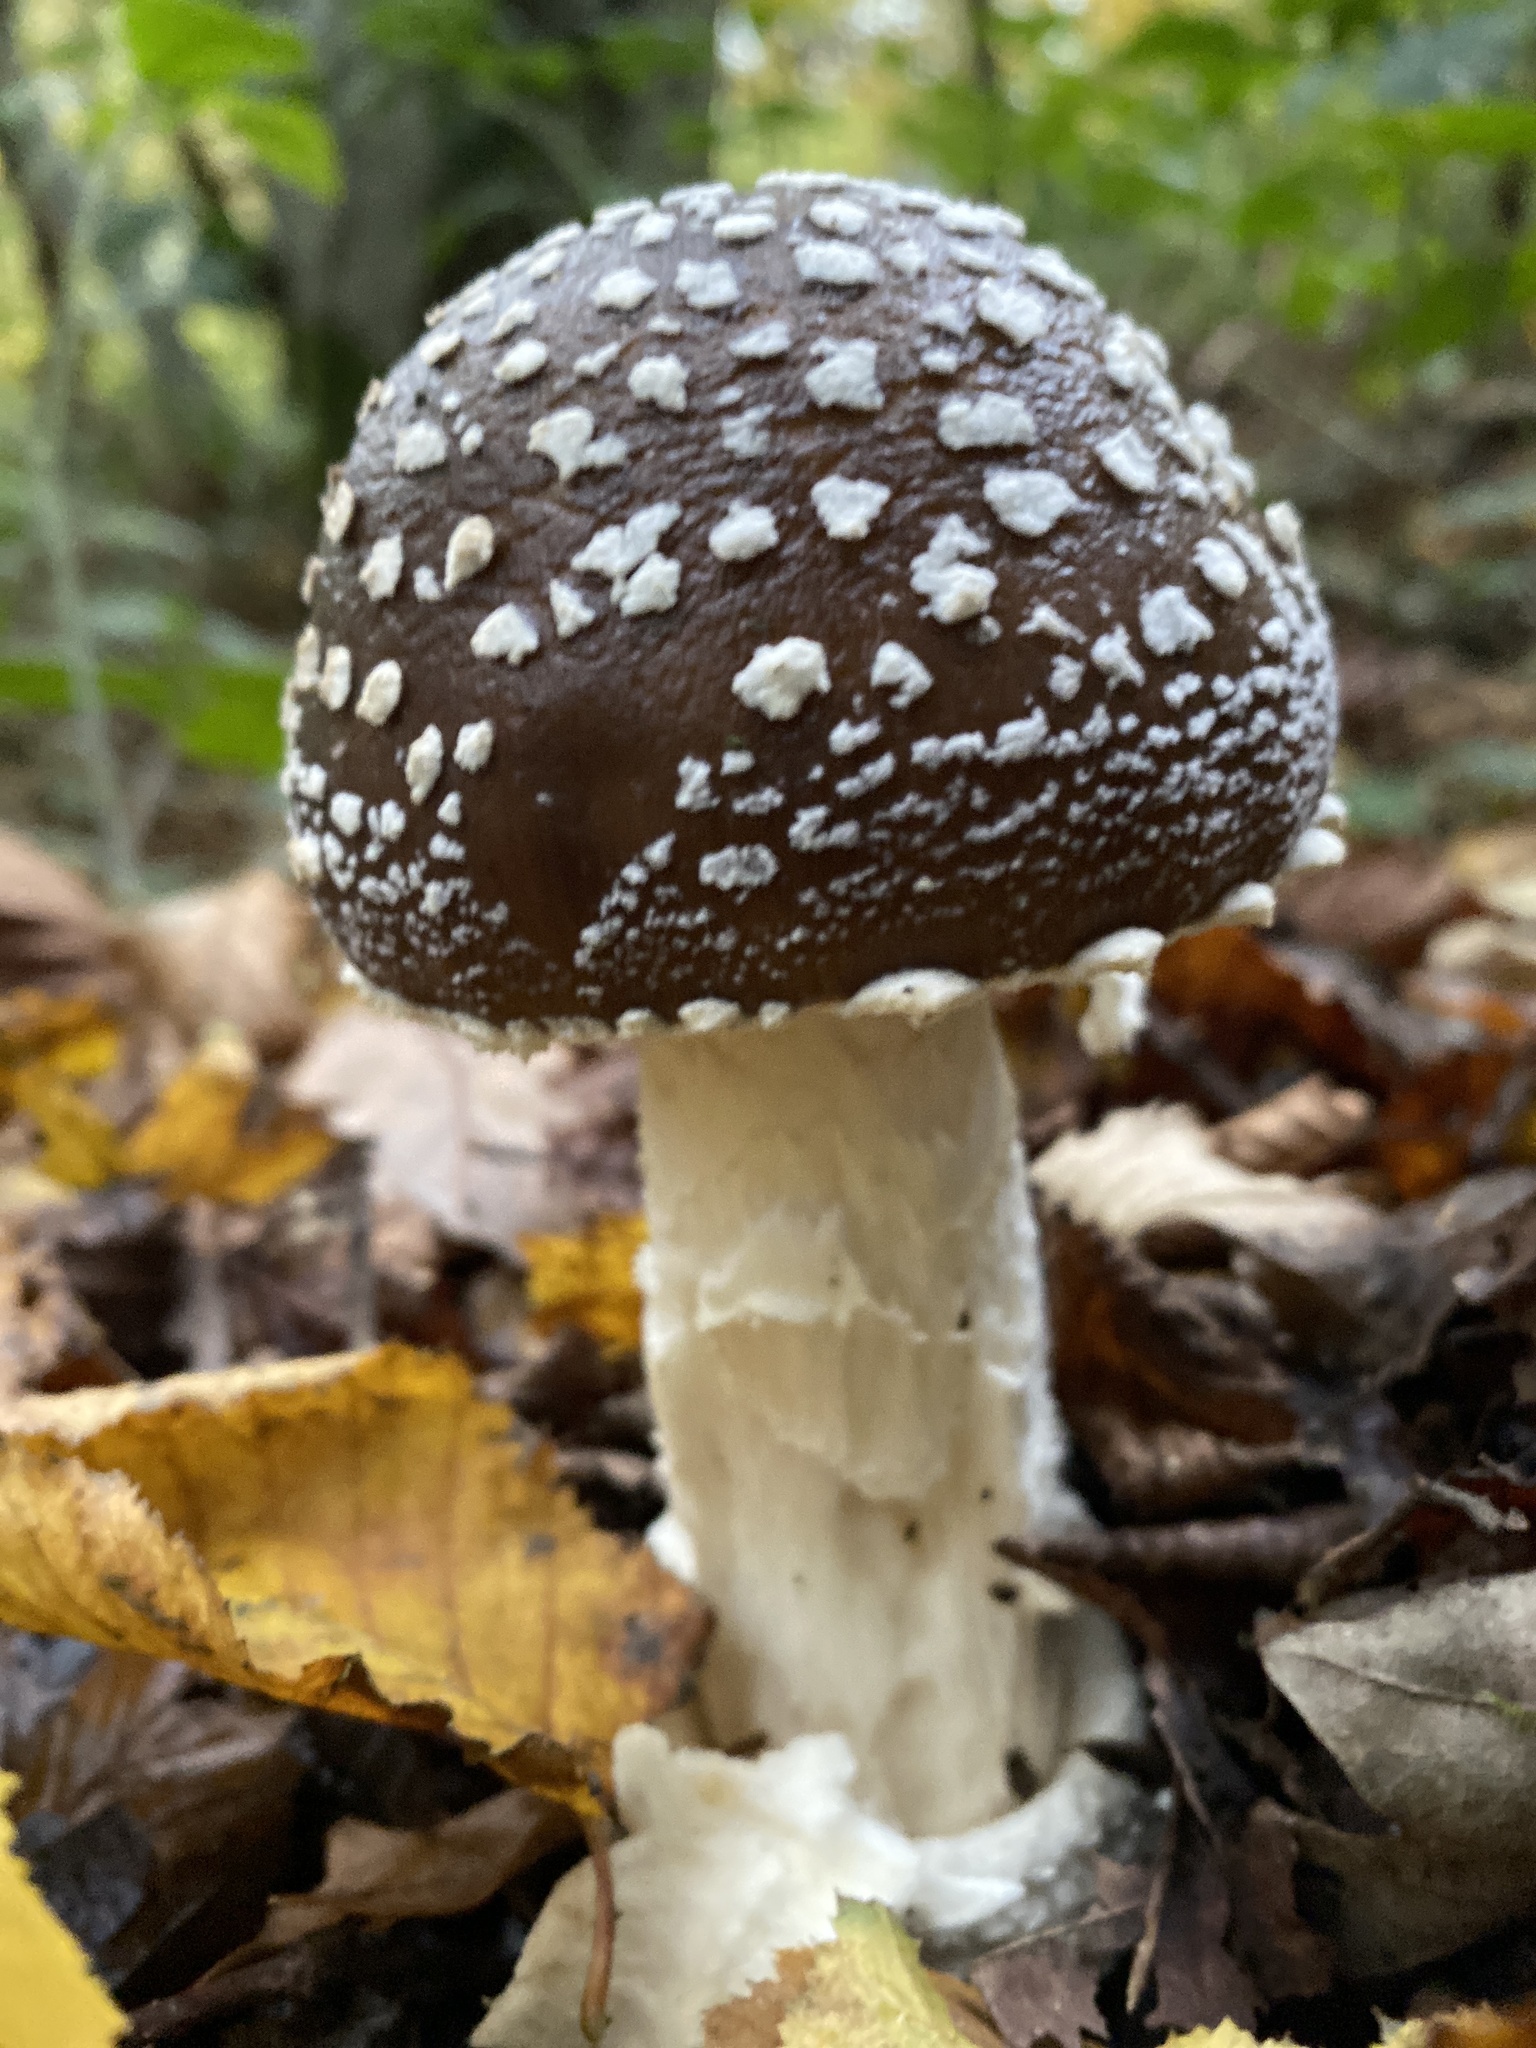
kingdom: Fungi
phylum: Basidiomycota
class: Agaricomycetes
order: Agaricales
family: Amanitaceae
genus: Amanita
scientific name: Amanita pantherina
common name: Panthercap
